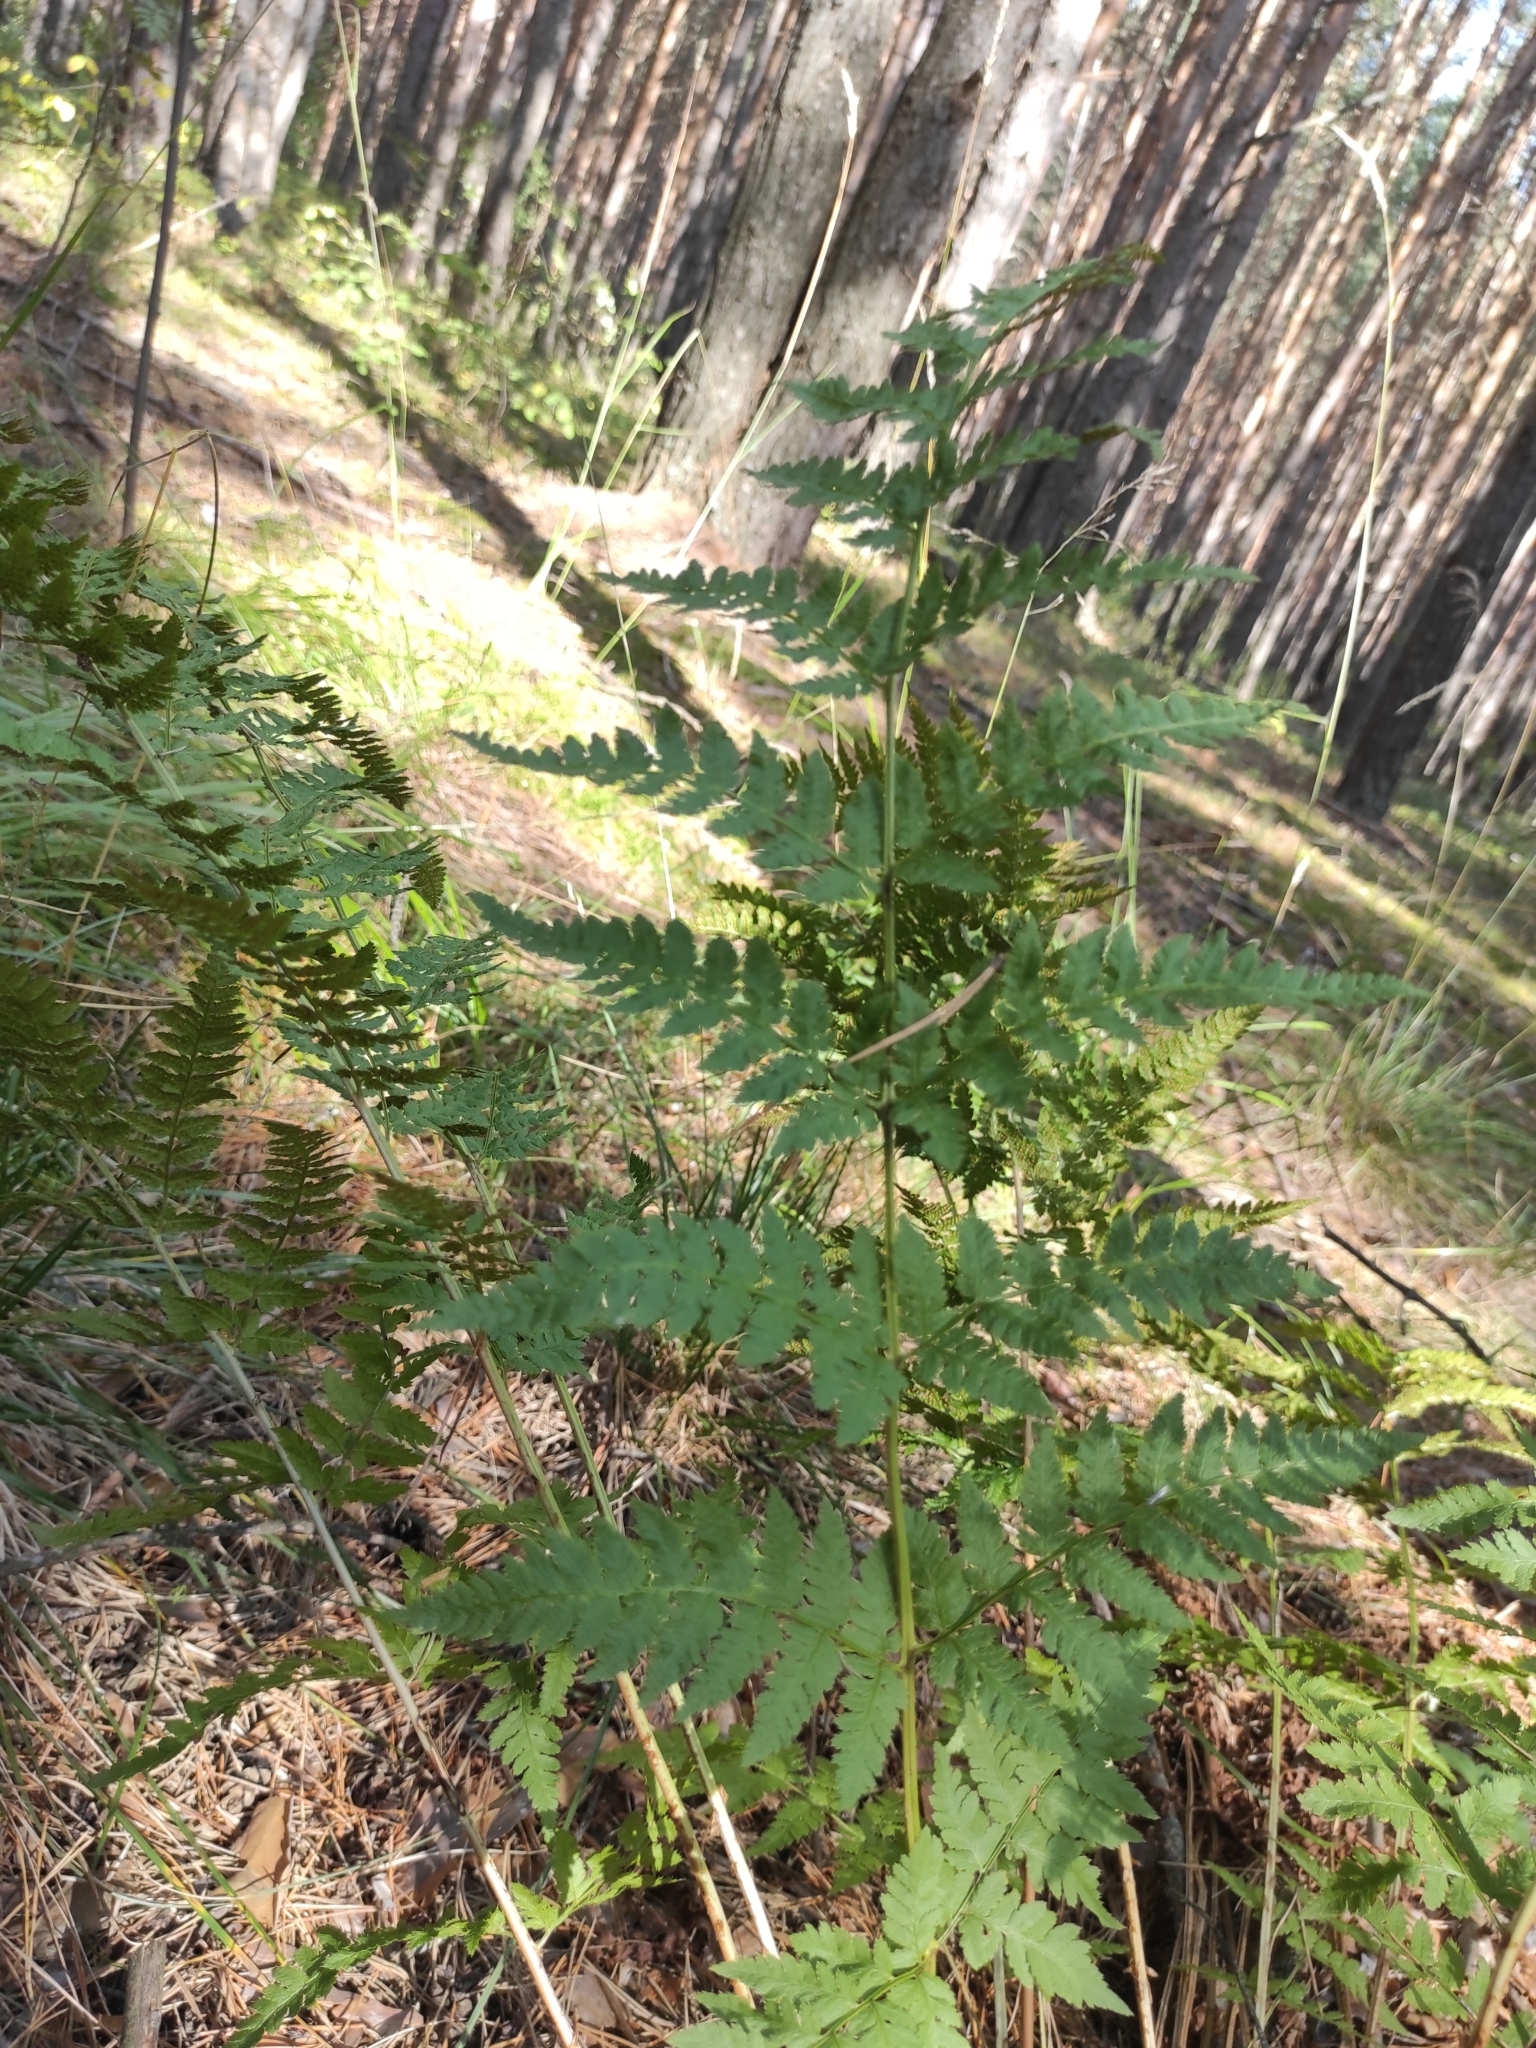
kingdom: Plantae
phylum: Tracheophyta
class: Polypodiopsida
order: Polypodiales
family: Dryopteridaceae
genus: Dryopteris
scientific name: Dryopteris carthusiana
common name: Narrow buckler-fern
